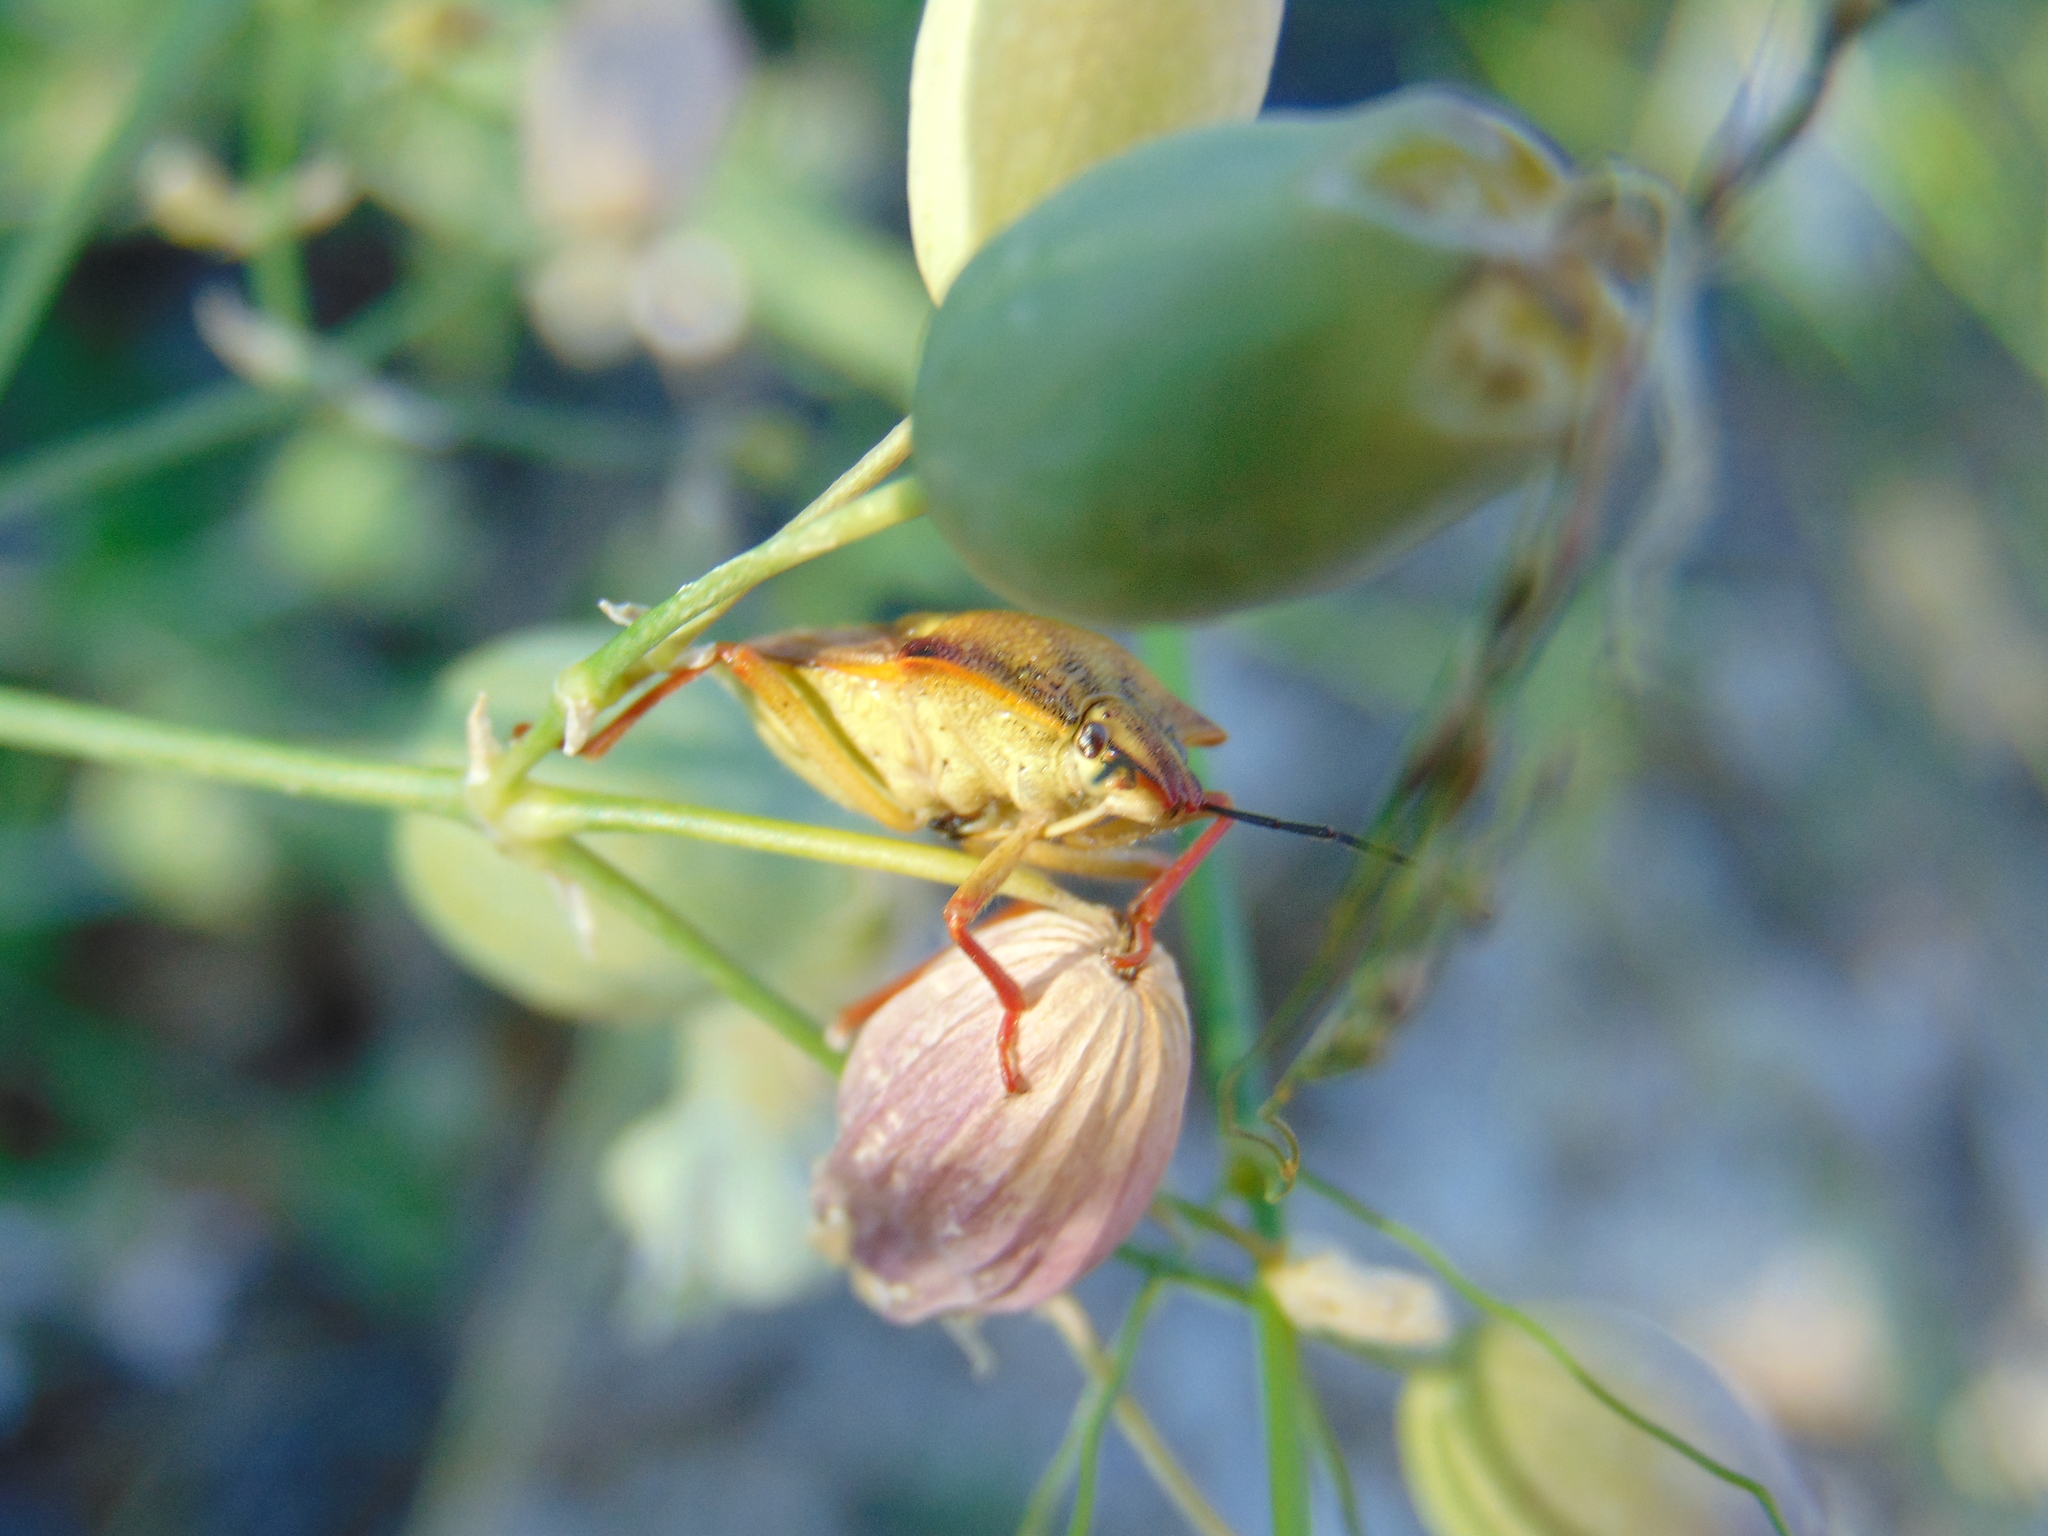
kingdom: Animalia
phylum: Arthropoda
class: Insecta
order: Hemiptera
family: Pentatomidae
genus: Carpocoris
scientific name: Carpocoris mediterraneus
